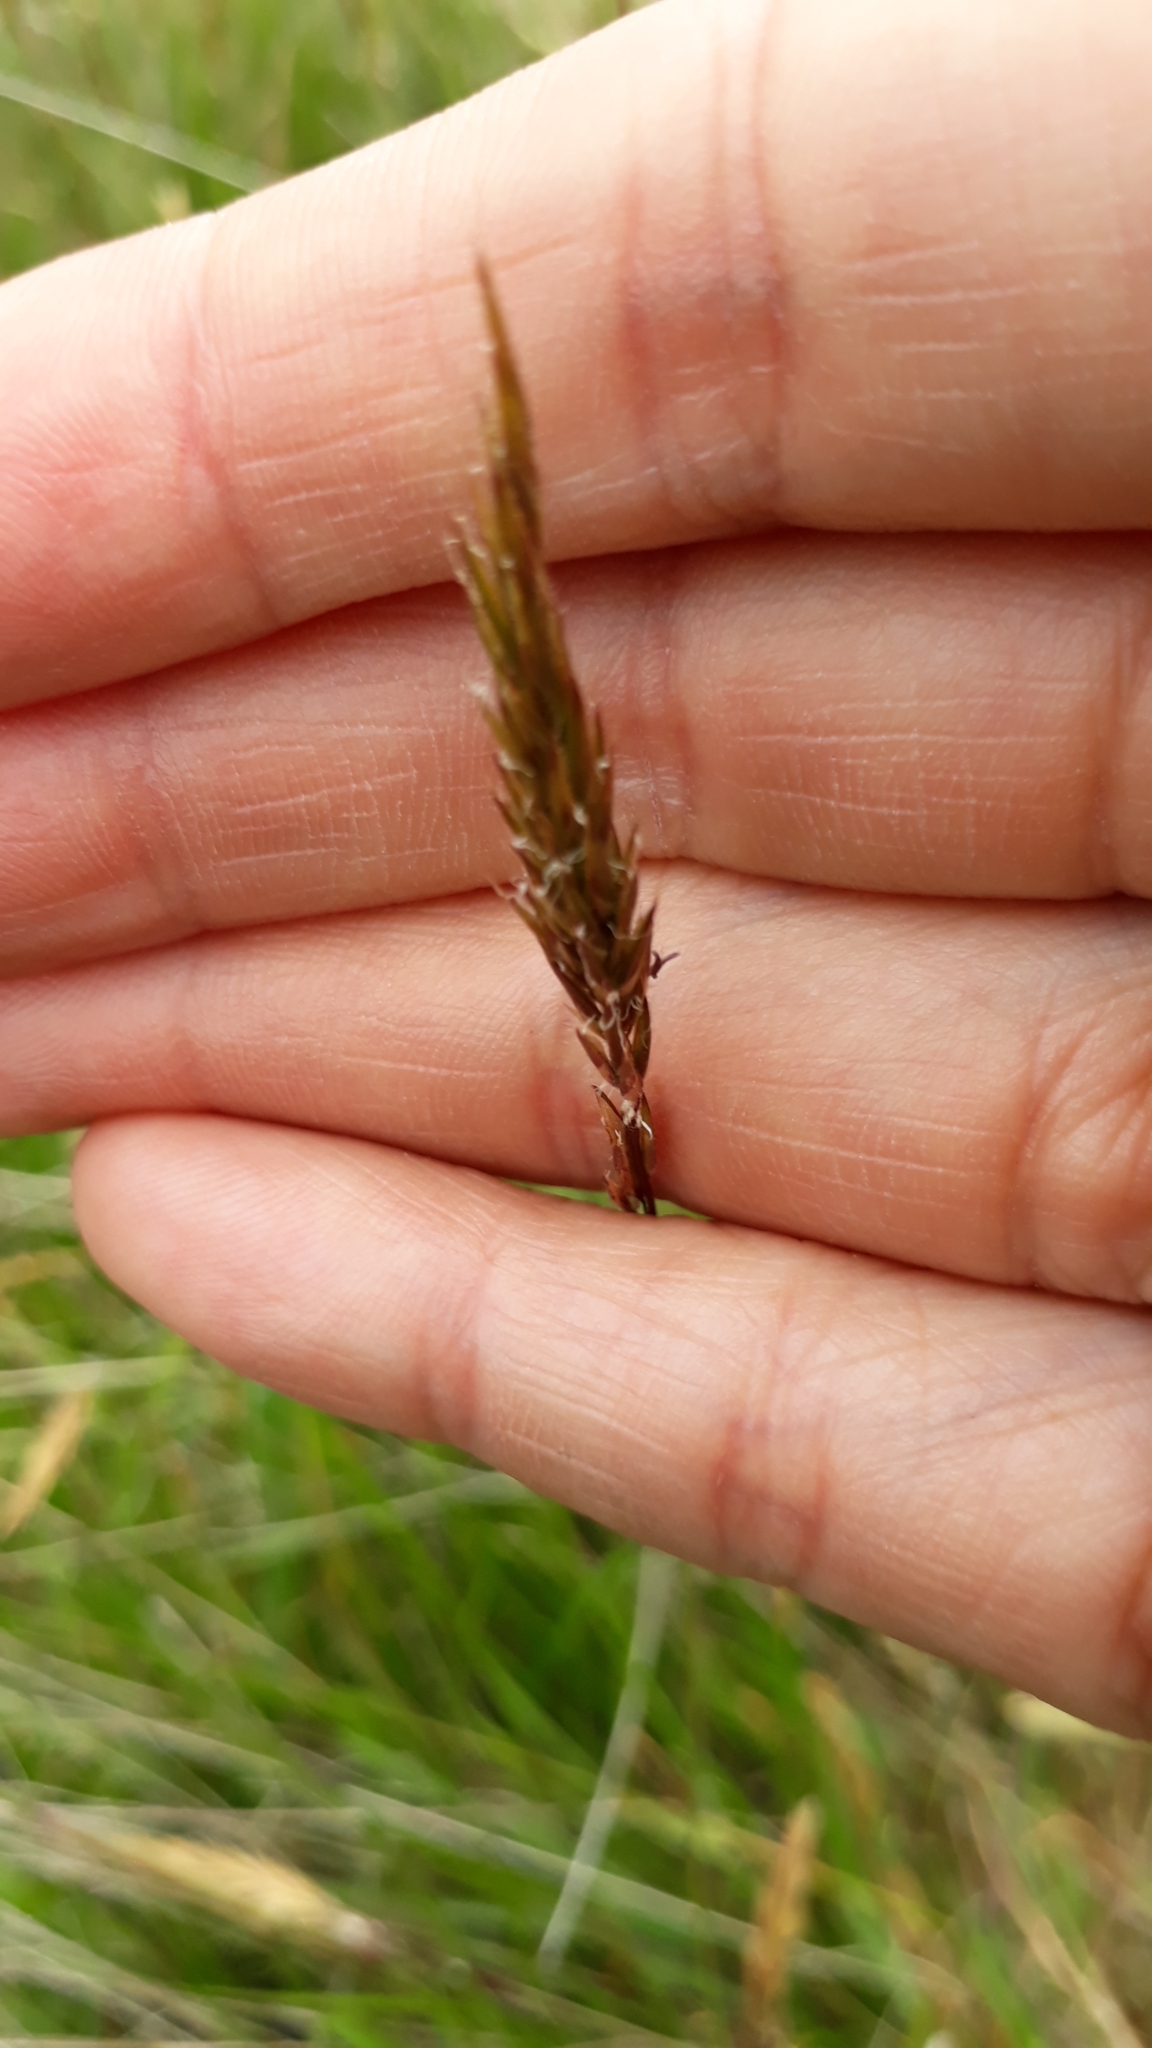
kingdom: Plantae
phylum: Tracheophyta
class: Liliopsida
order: Poales
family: Poaceae
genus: Anthoxanthum
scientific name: Anthoxanthum odoratum
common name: Sweet vernalgrass
